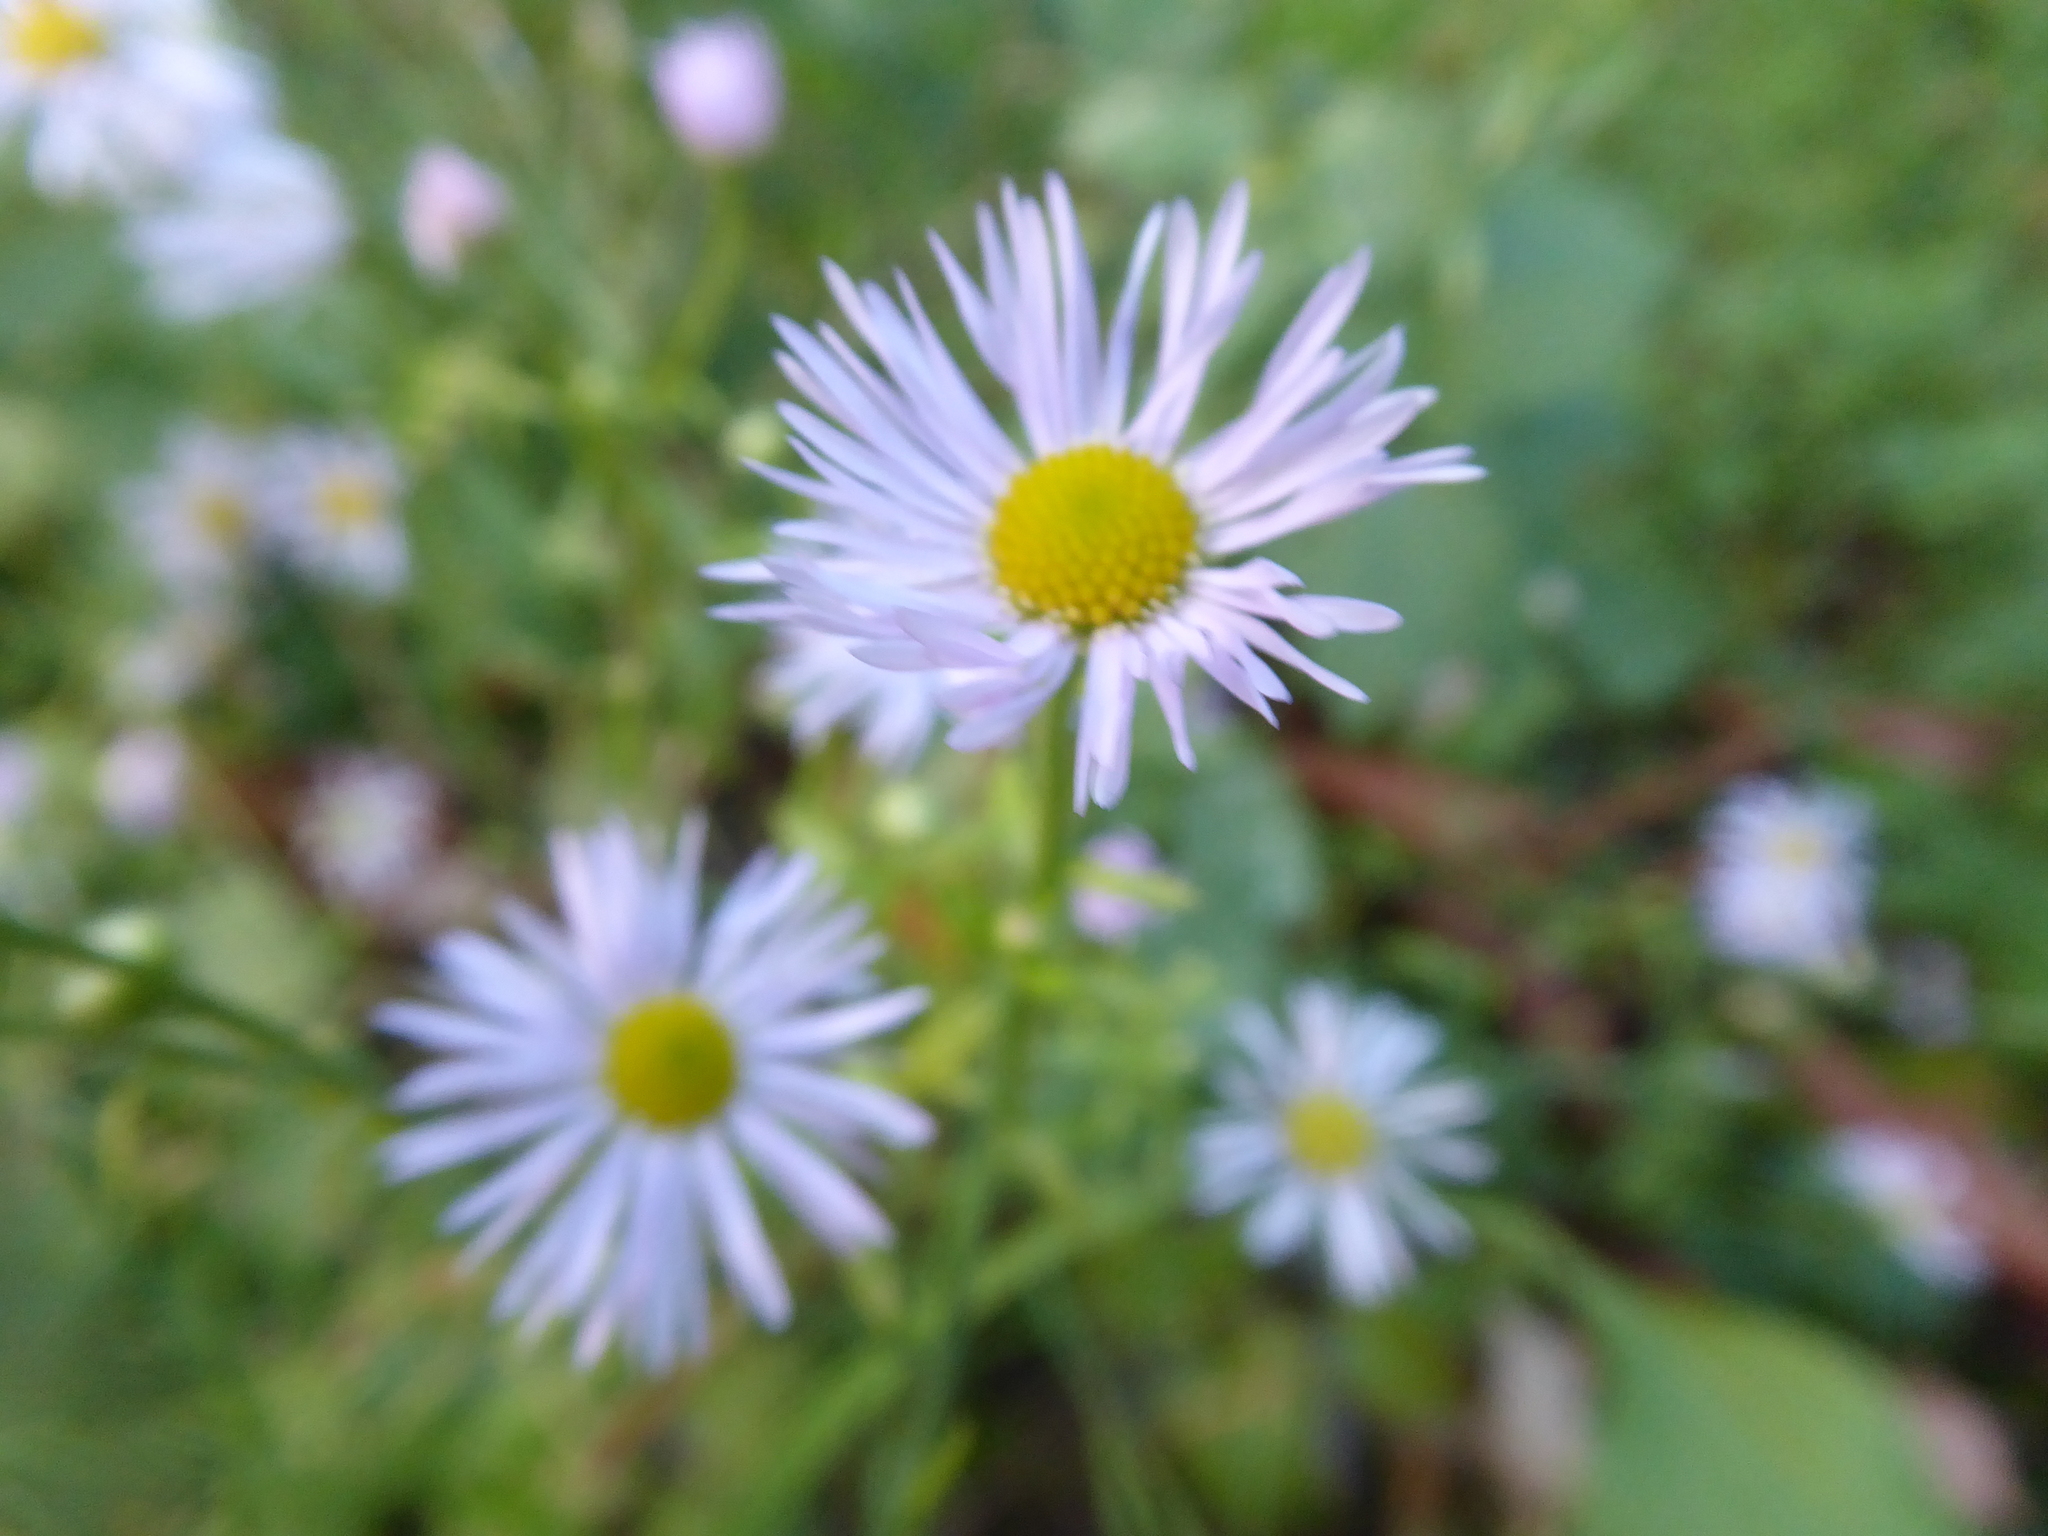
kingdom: Plantae
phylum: Tracheophyta
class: Magnoliopsida
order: Asterales
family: Asteraceae
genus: Erigeron
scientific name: Erigeron annuus
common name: Tall fleabane
